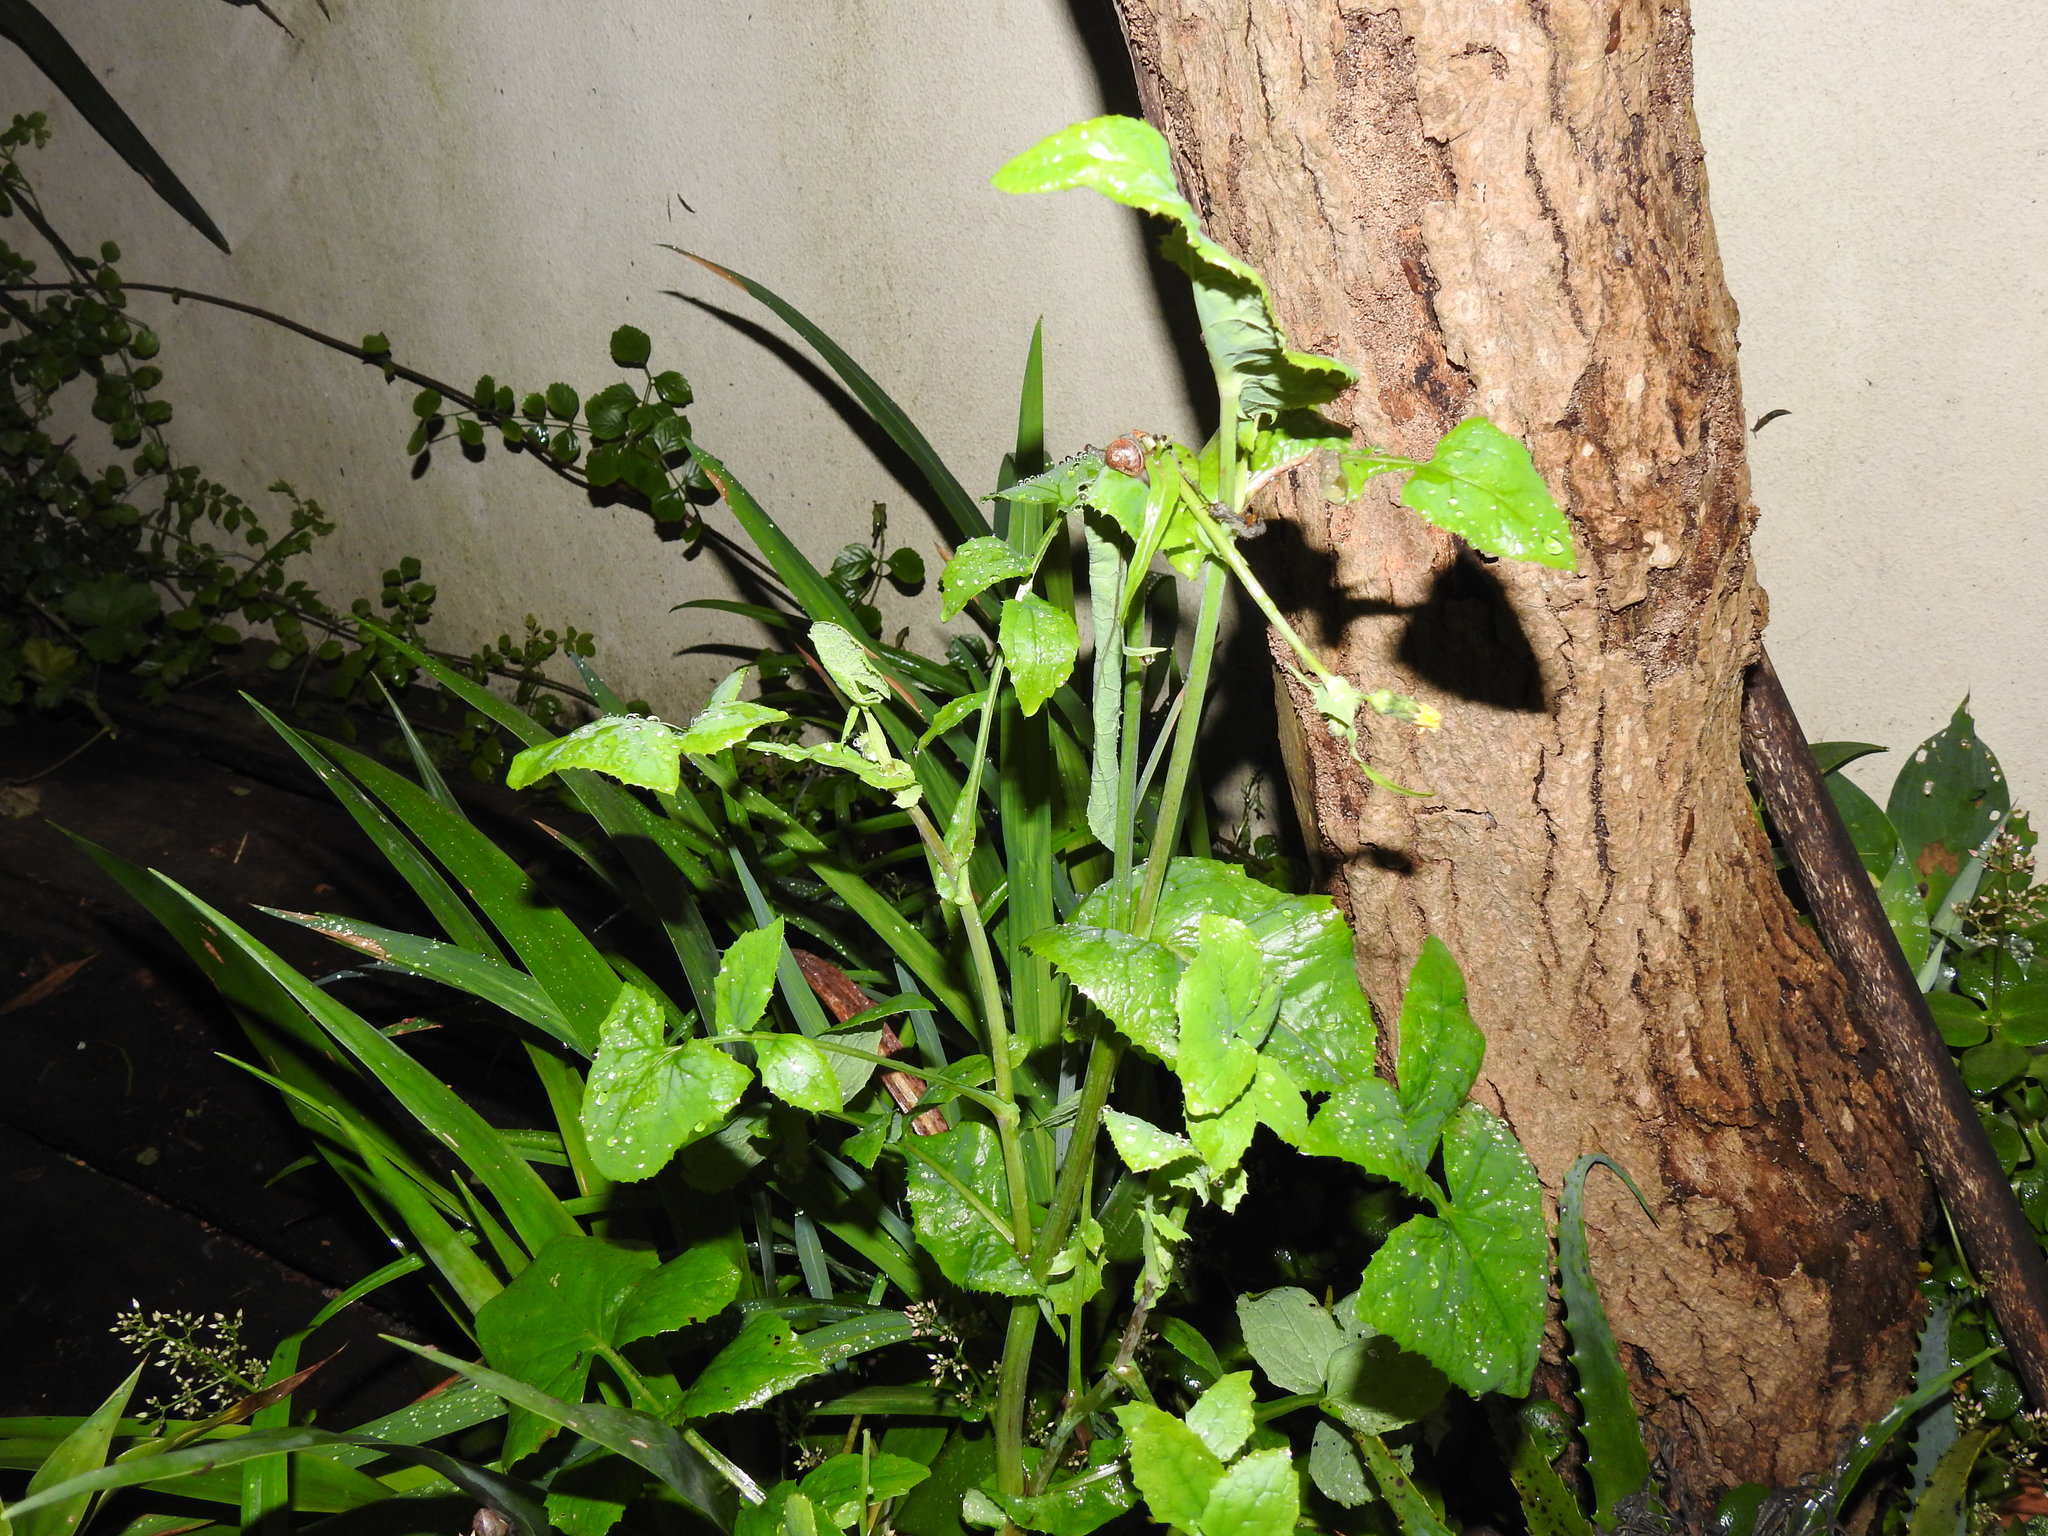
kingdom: Plantae
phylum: Tracheophyta
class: Magnoliopsida
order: Asterales
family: Asteraceae
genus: Sonchus
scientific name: Sonchus oleraceus
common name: Common sowthistle
